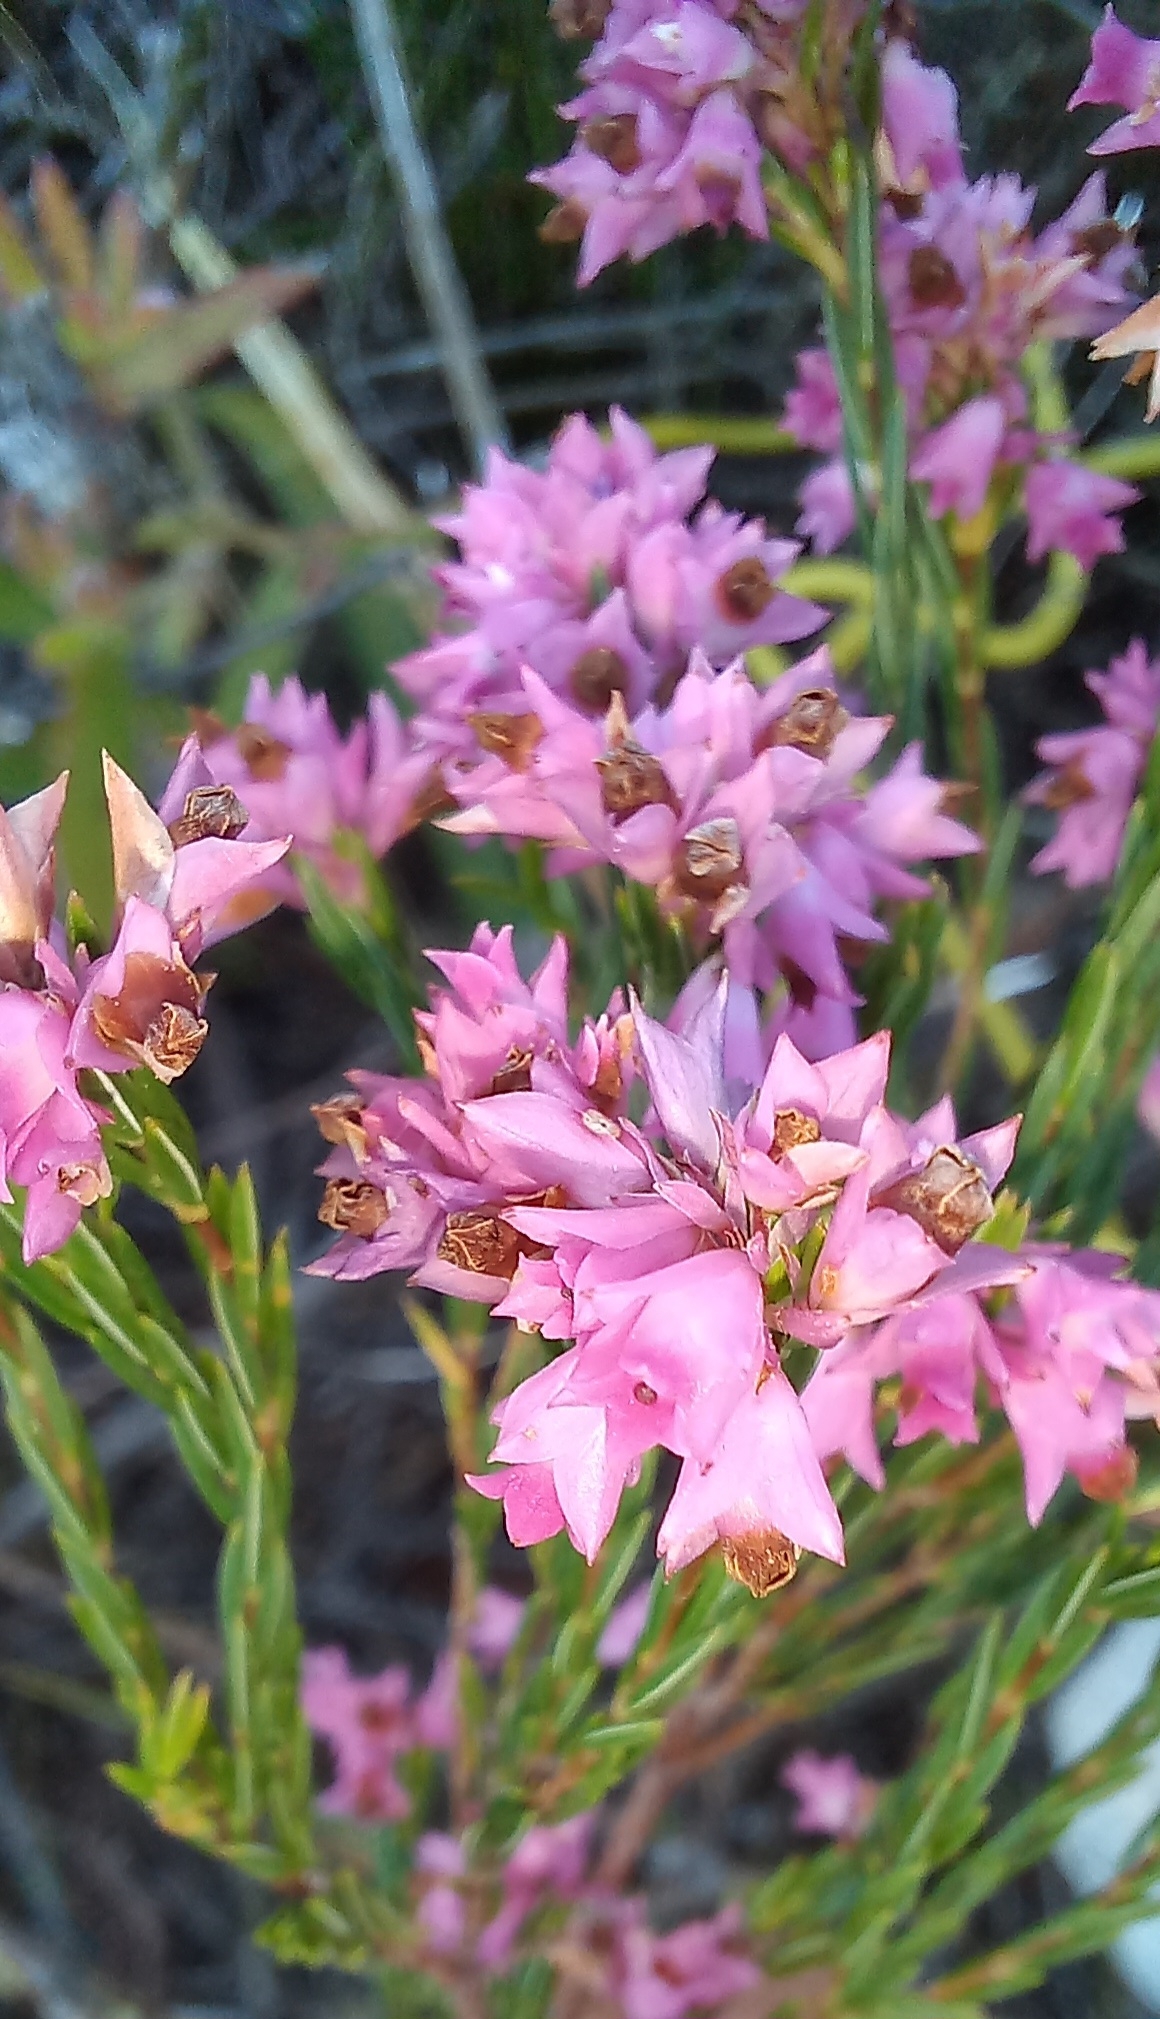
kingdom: Plantae
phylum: Tracheophyta
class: Magnoliopsida
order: Ericales
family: Ericaceae
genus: Erica
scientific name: Erica taxifolia
